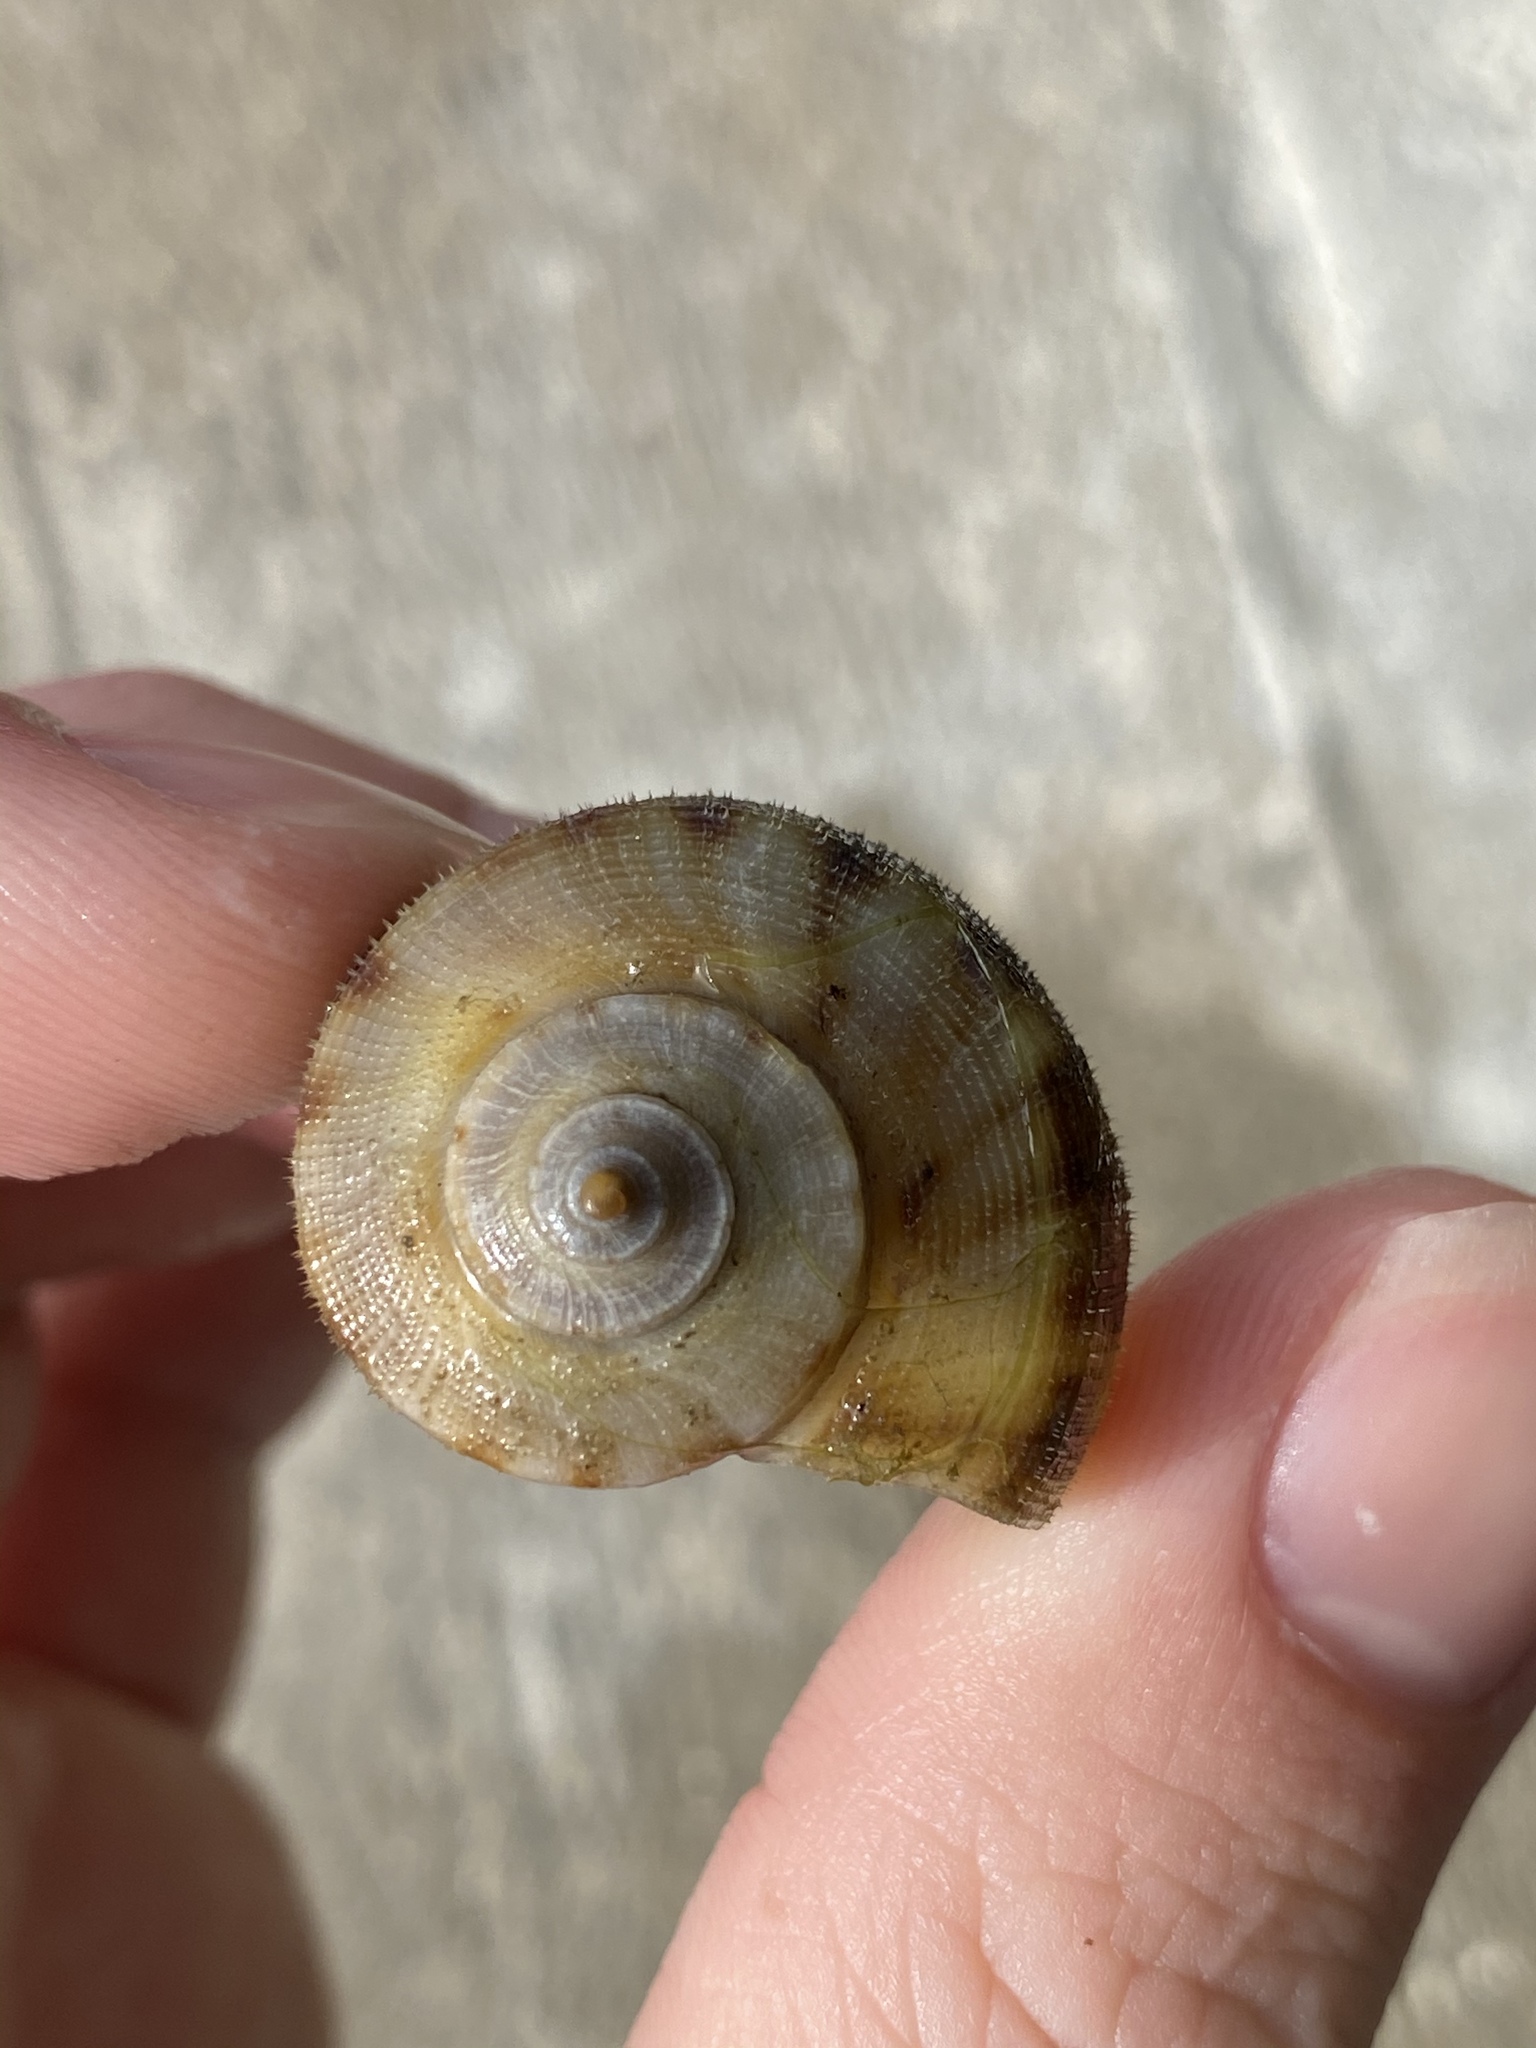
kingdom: Animalia
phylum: Mollusca
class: Gastropoda
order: Neogastropoda
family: Busyconidae
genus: Fulguropsis
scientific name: Fulguropsis pyruloides
